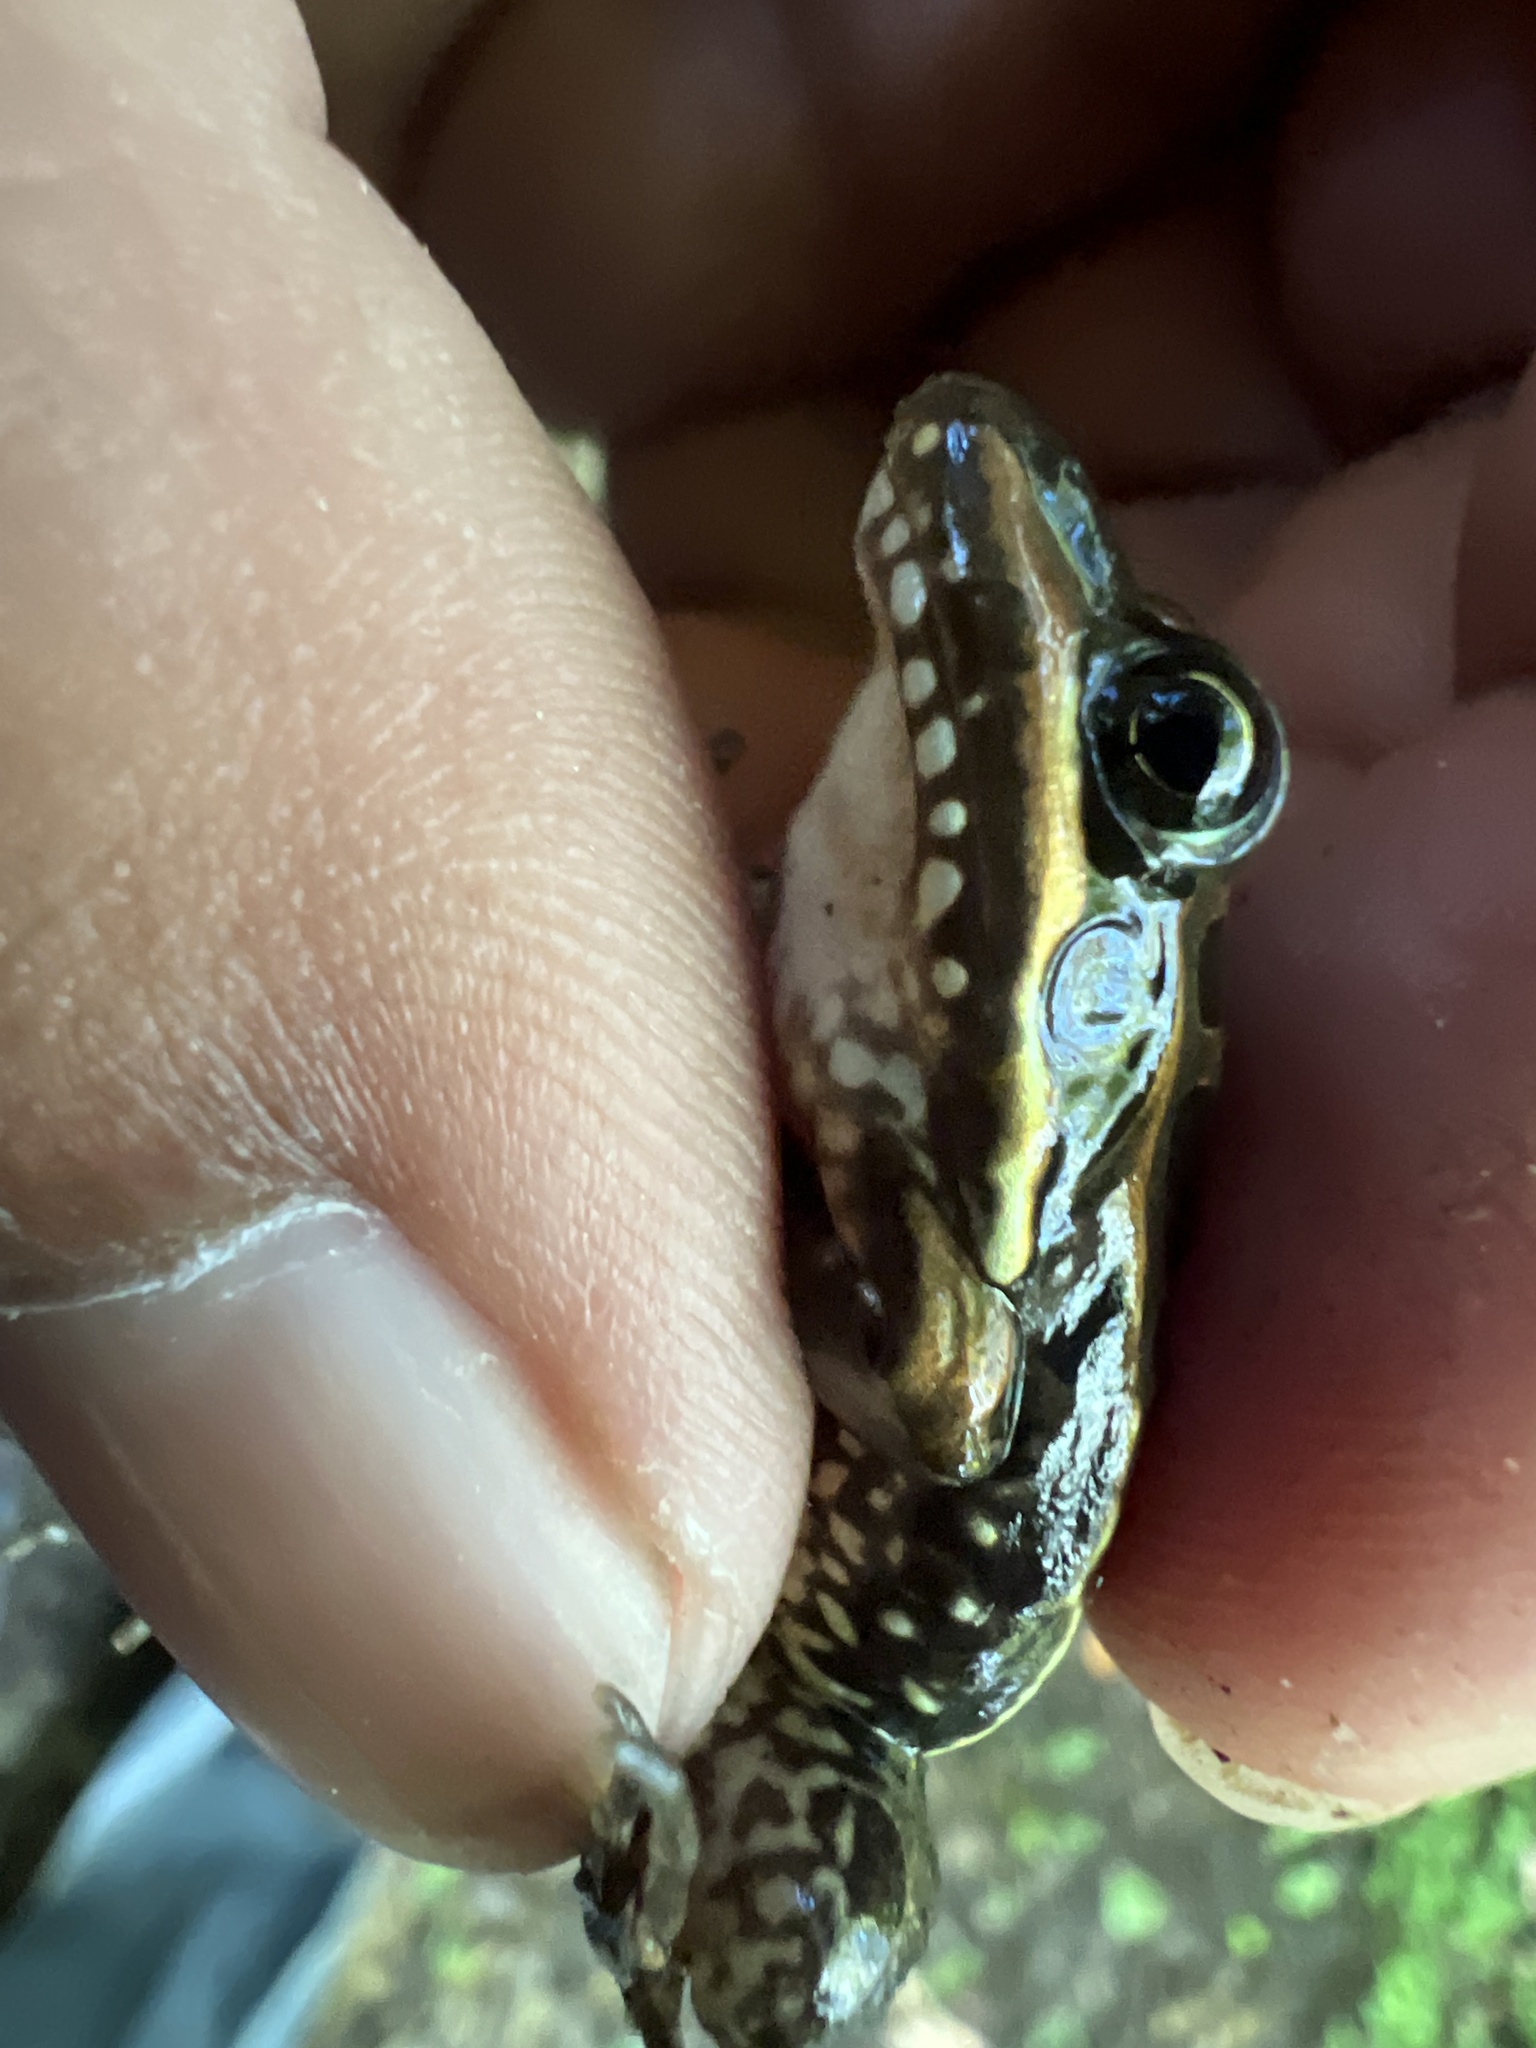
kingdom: Animalia
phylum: Chordata
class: Amphibia
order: Anura
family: Leptodactylidae
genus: Leptodactylus
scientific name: Leptodactylus macrosternum
